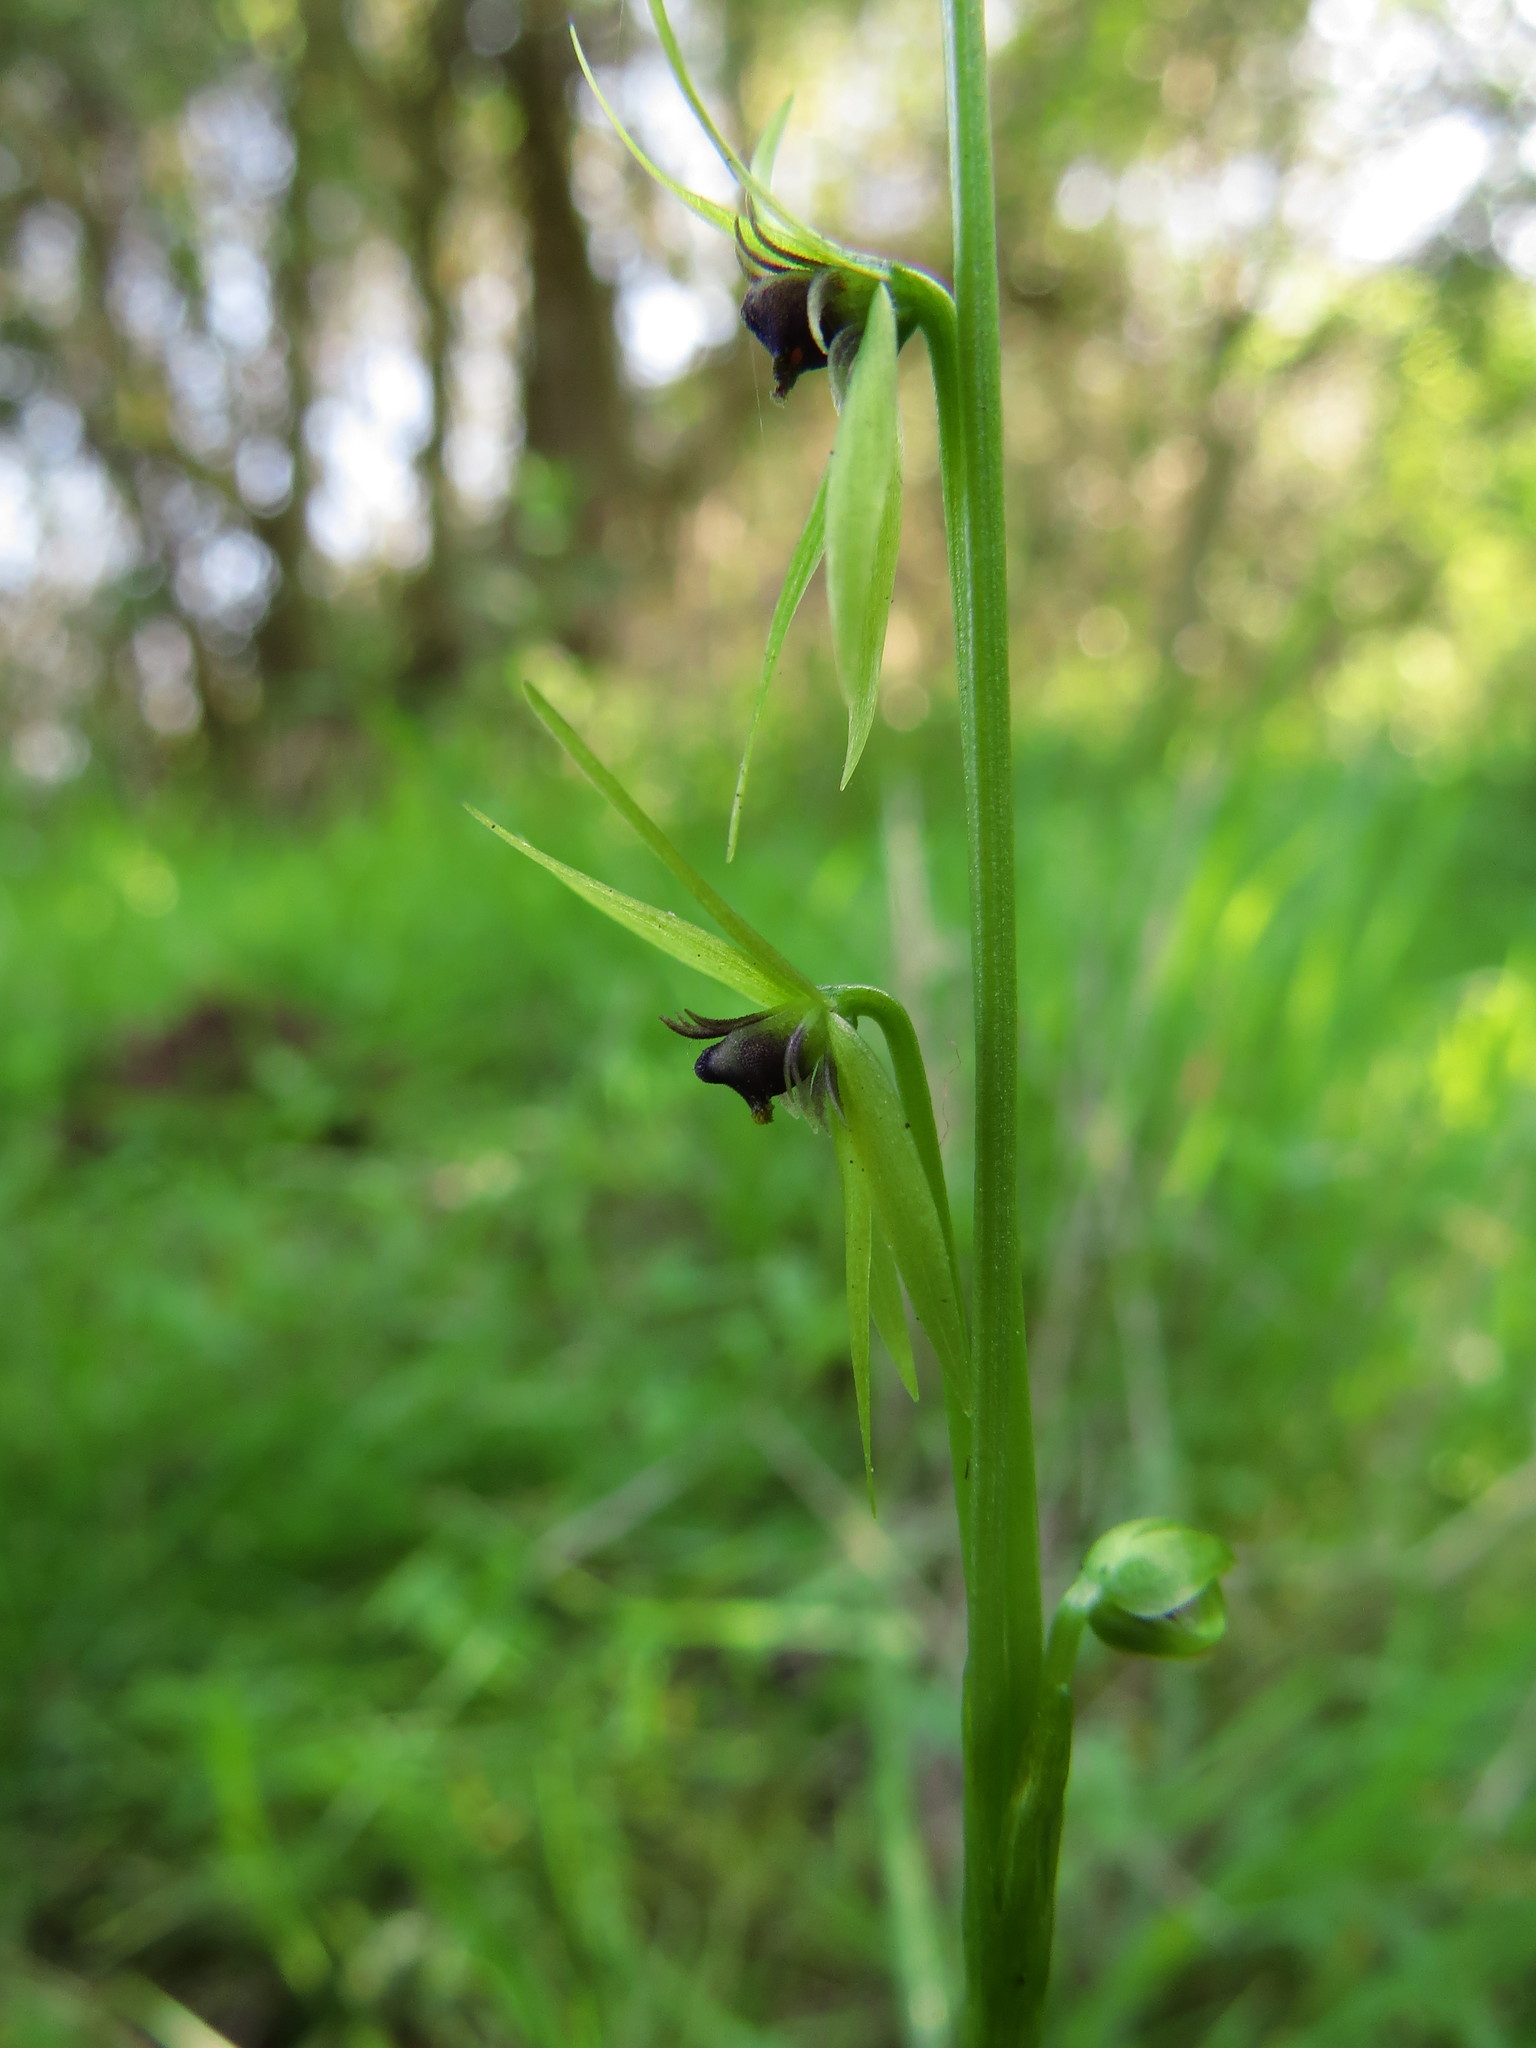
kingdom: Plantae
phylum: Tracheophyta
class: Liliopsida
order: Asparagales
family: Amaryllidaceae
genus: Miersia
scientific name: Miersia chilensis
